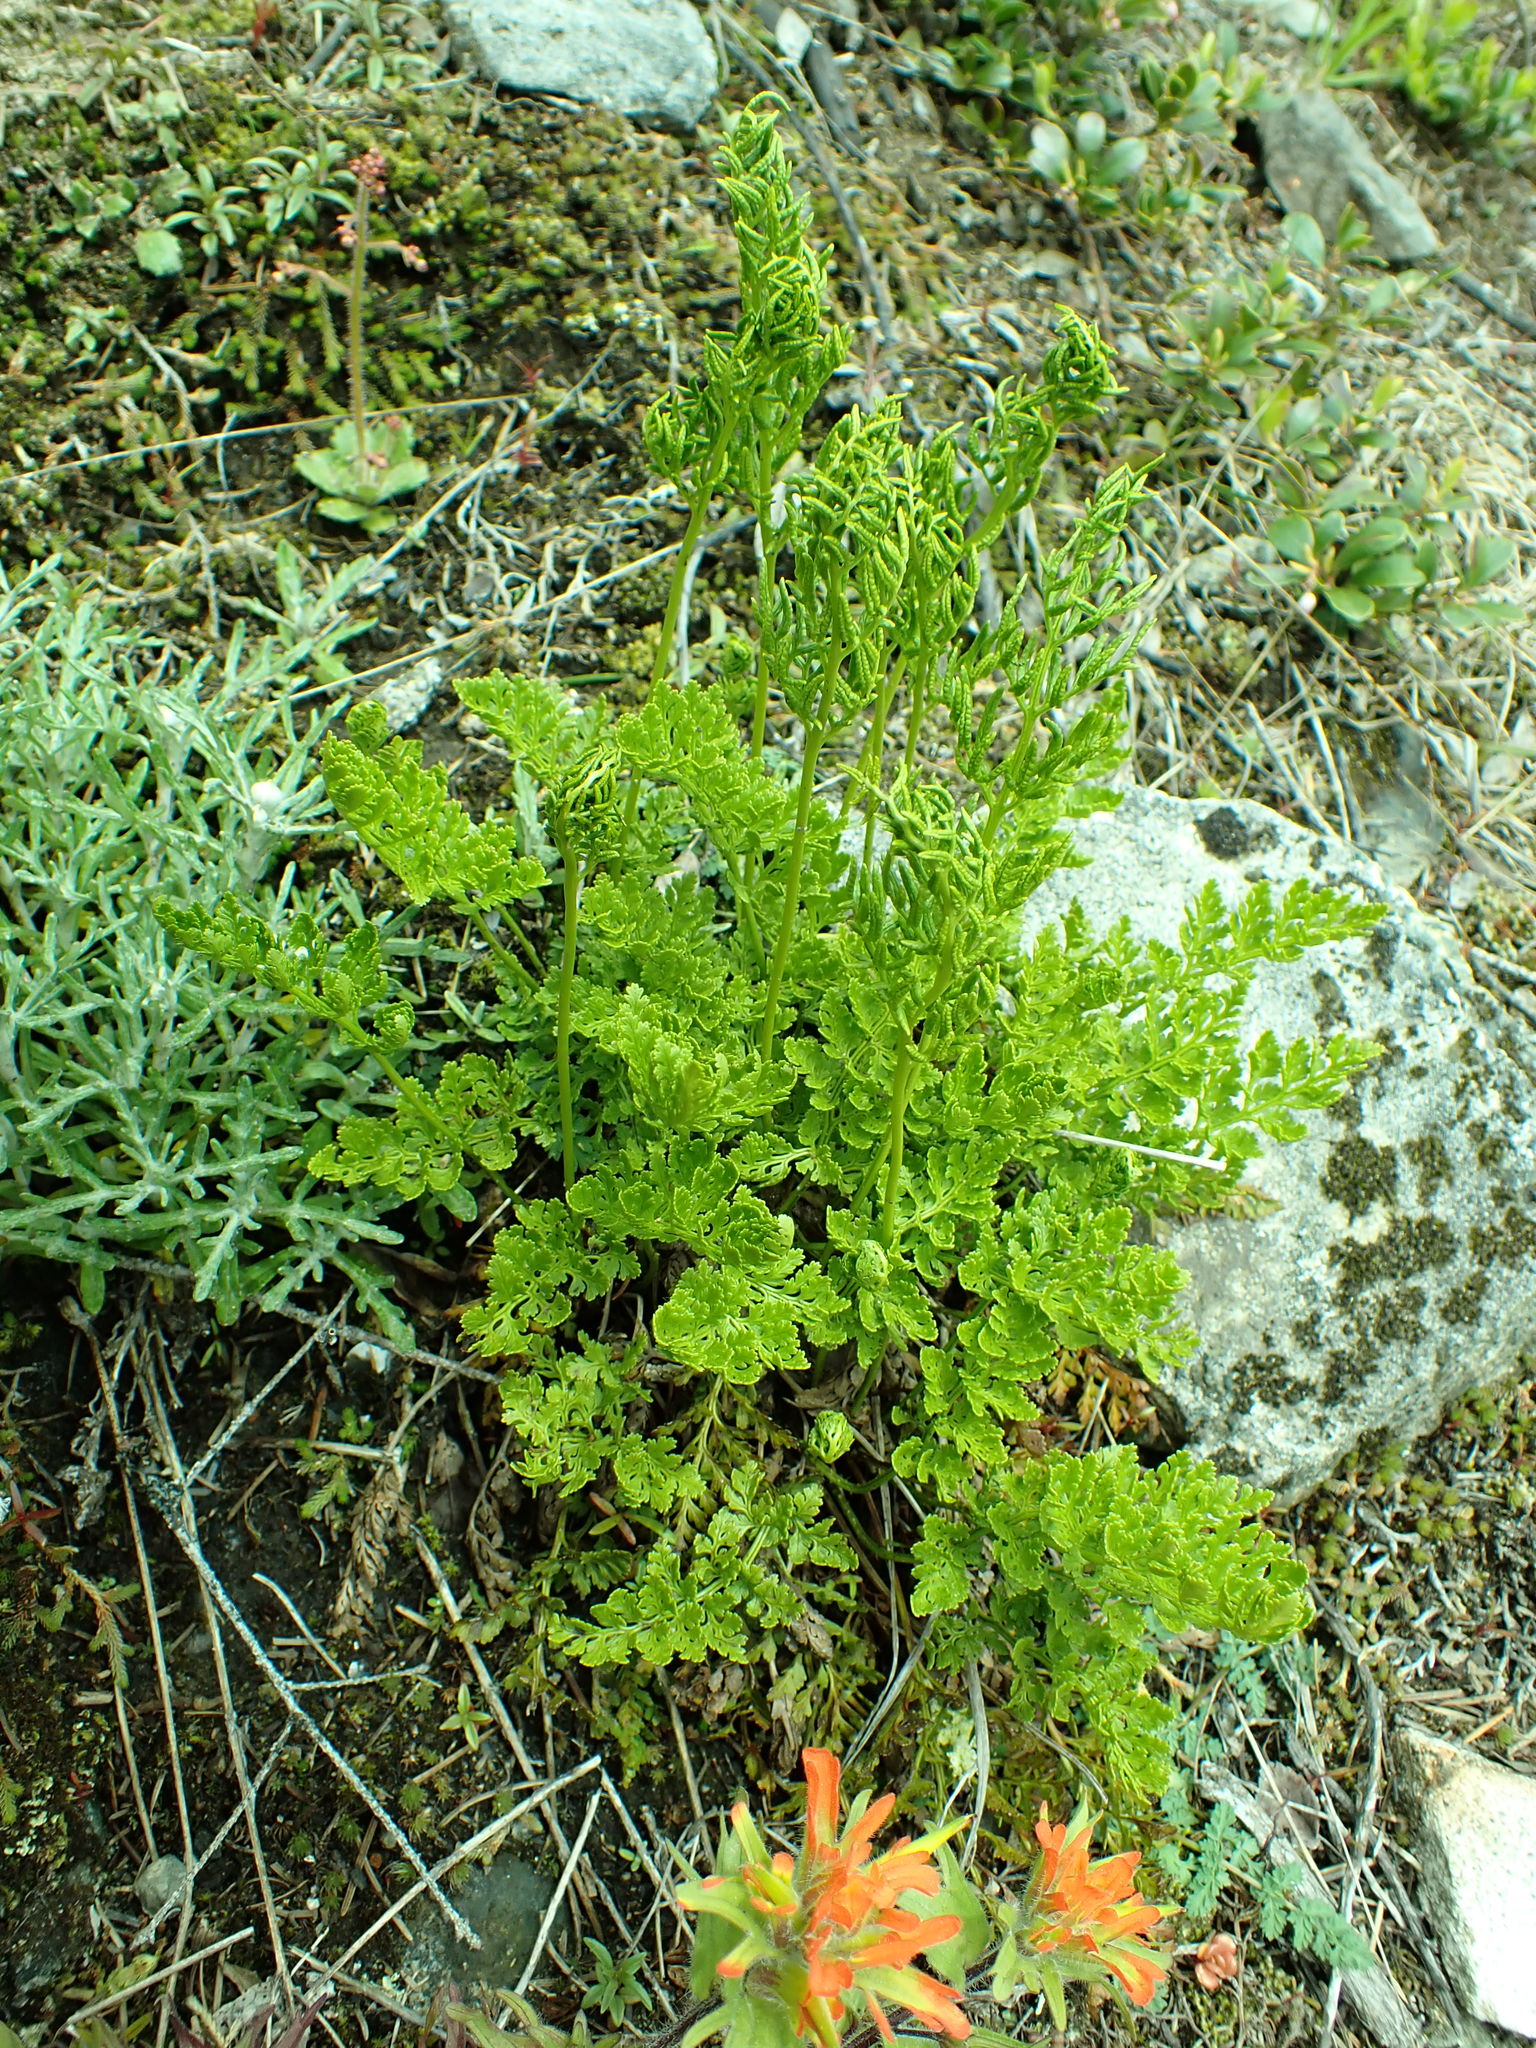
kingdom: Plantae
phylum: Tracheophyta
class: Polypodiopsida
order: Polypodiales
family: Pteridaceae
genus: Cryptogramma
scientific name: Cryptogramma acrostichoides
